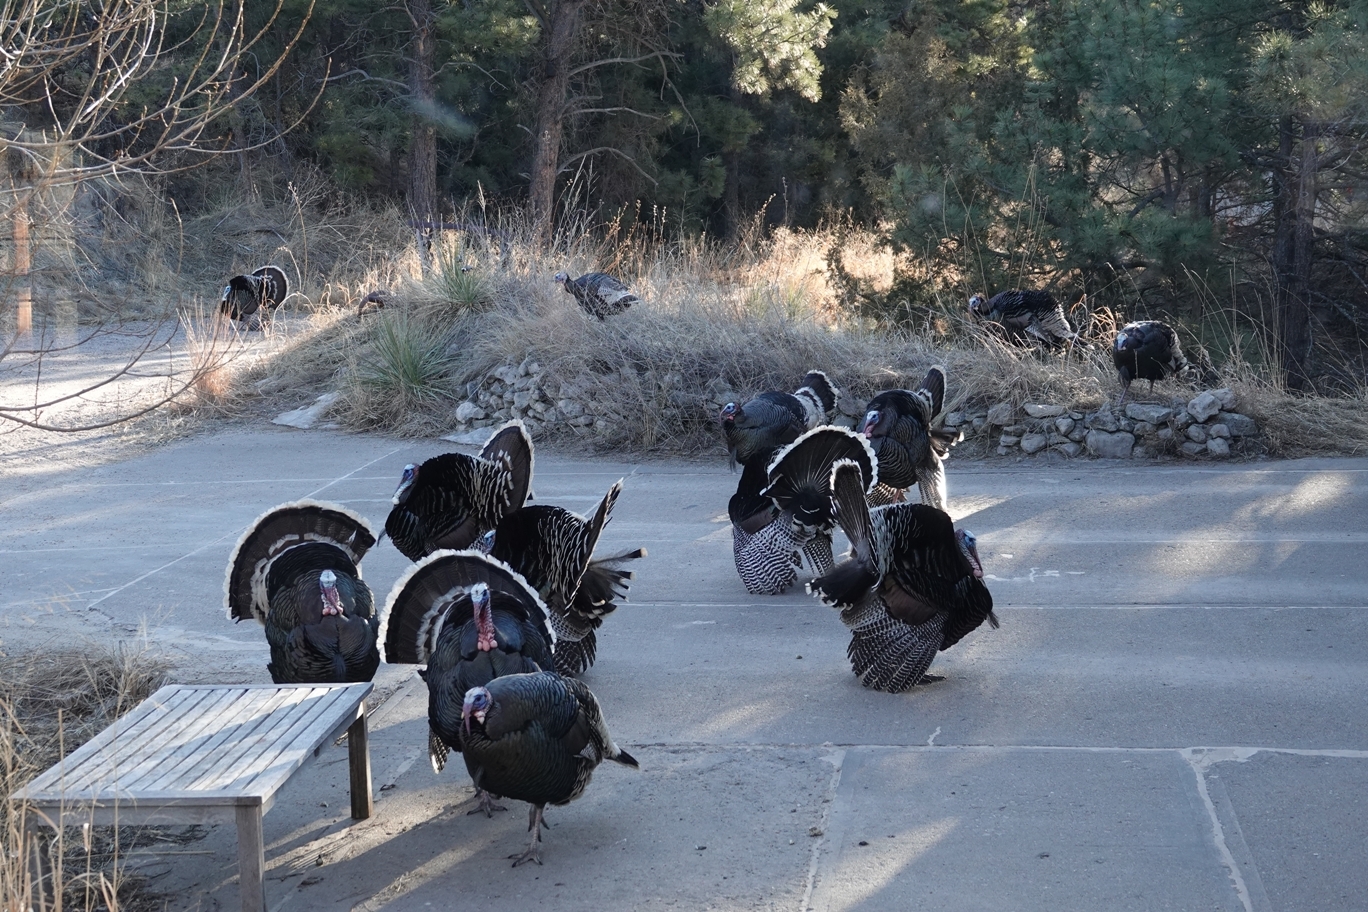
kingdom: Animalia
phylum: Chordata
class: Aves
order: Galliformes
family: Phasianidae
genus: Meleagris
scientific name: Meleagris gallopavo
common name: Wild turkey
